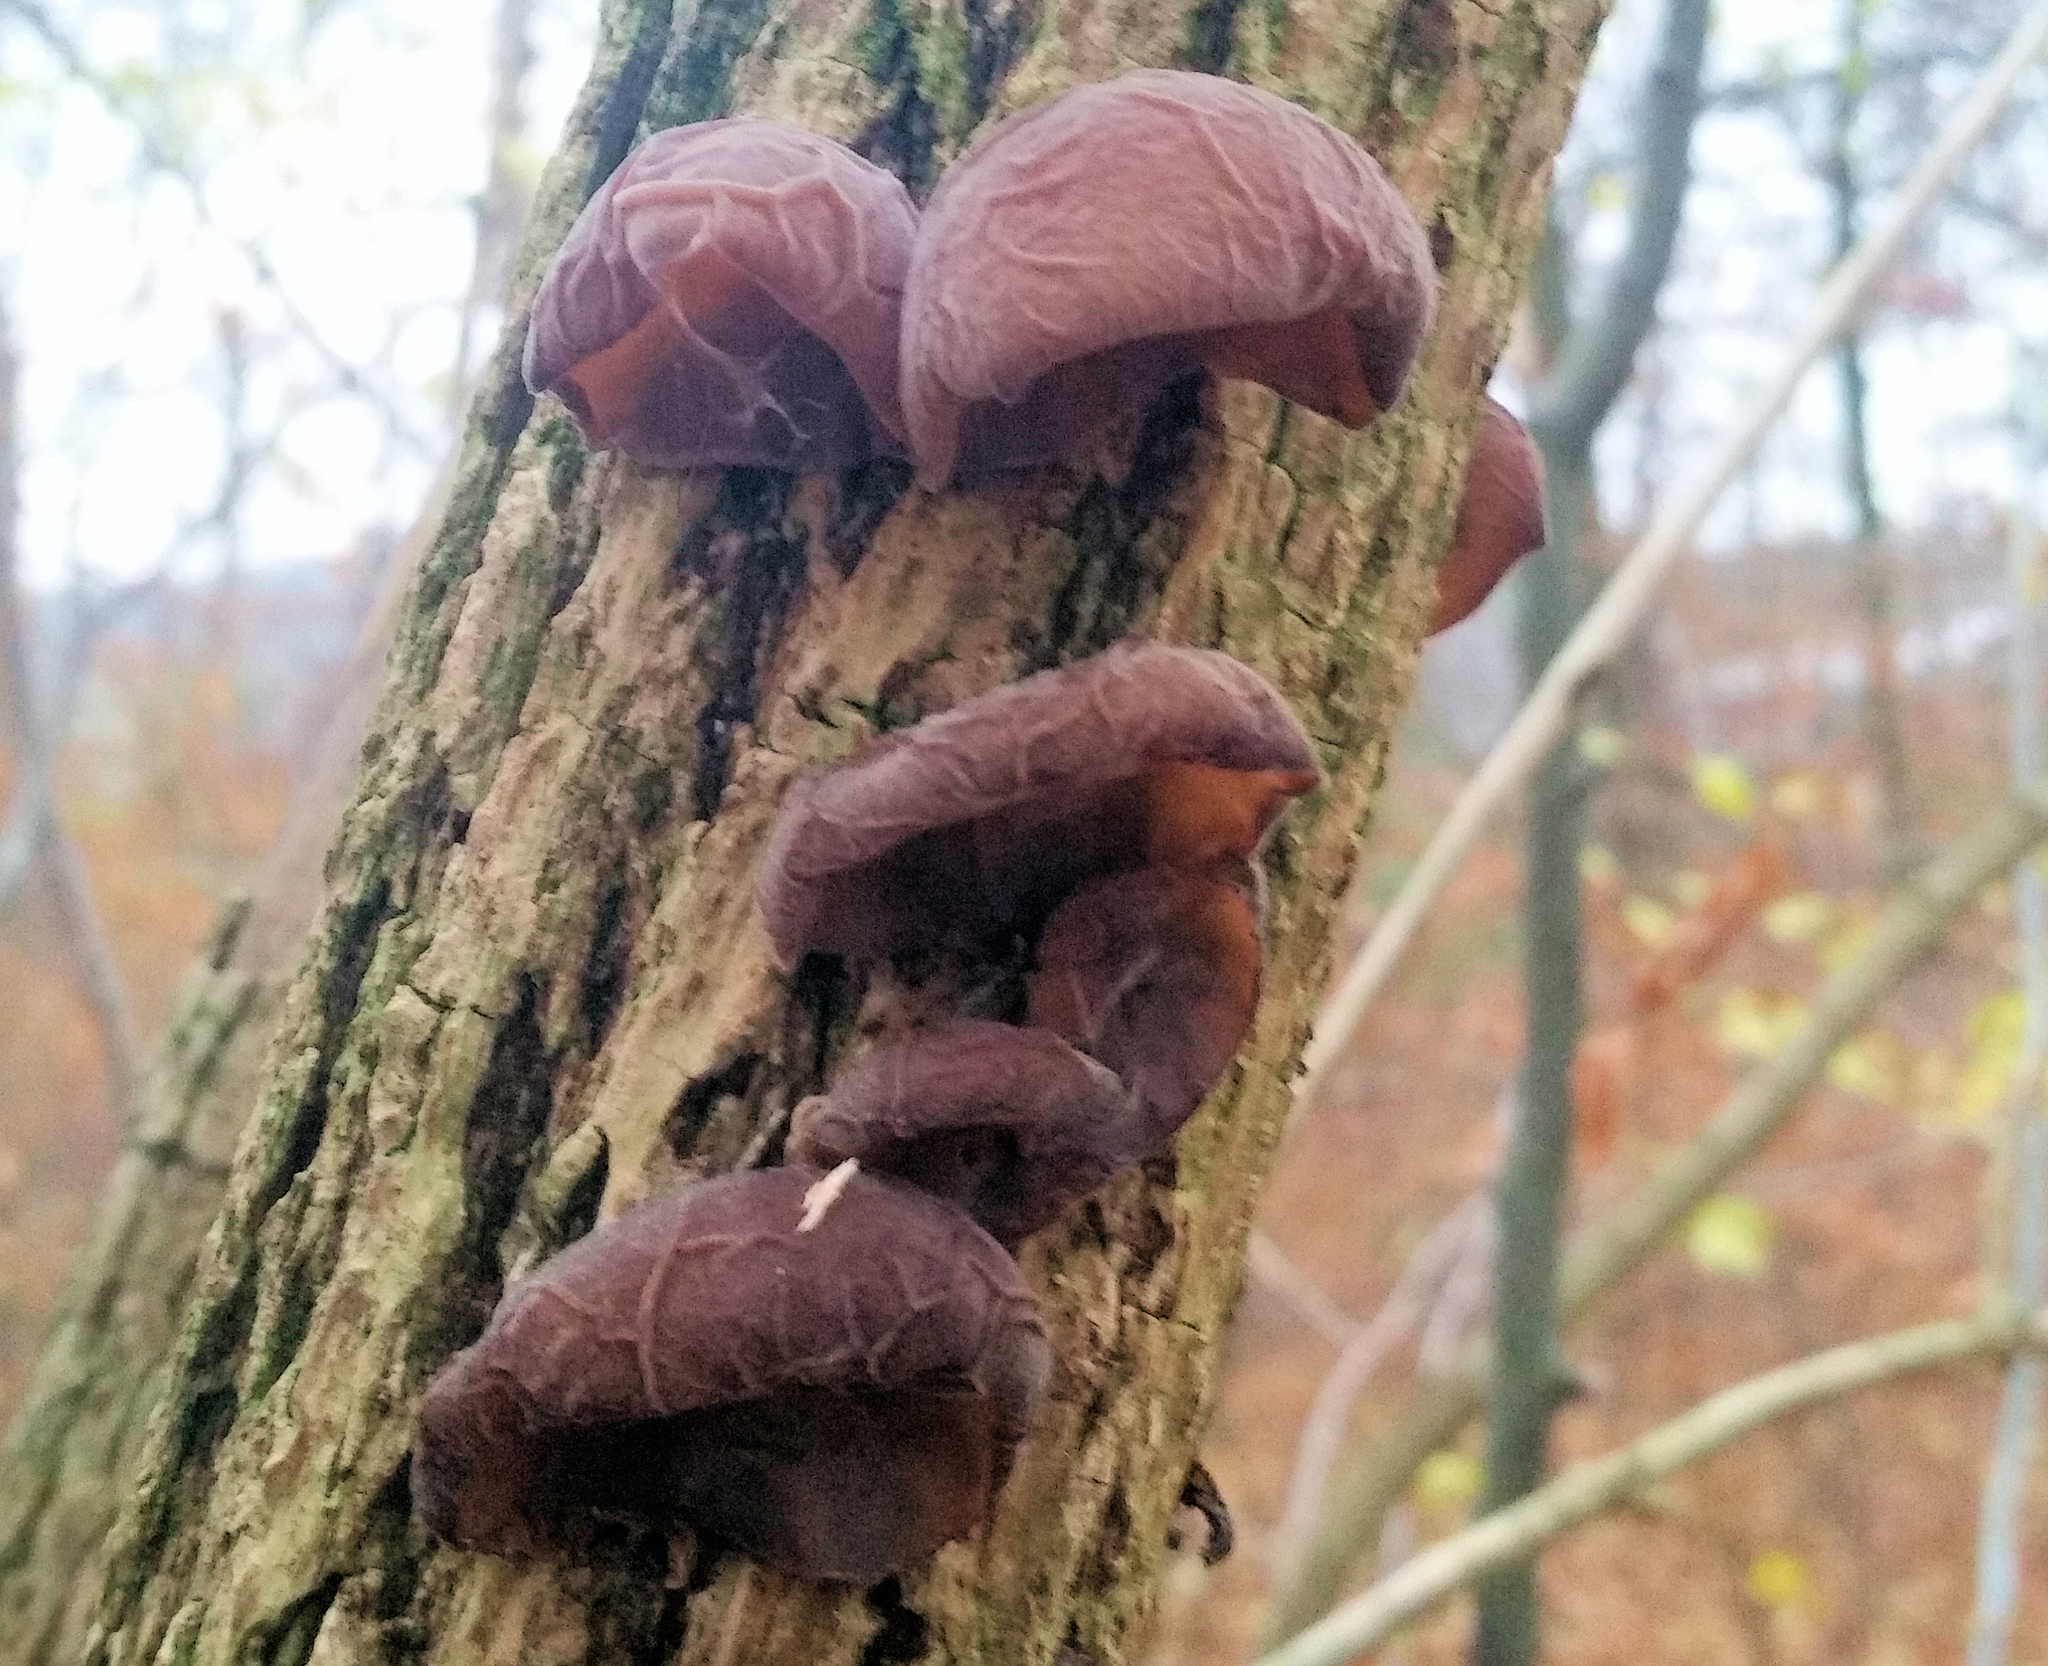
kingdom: Fungi
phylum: Basidiomycota
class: Agaricomycetes
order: Auriculariales
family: Auriculariaceae
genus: Auricularia
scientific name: Auricularia auricula-judae
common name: Jelly ear
